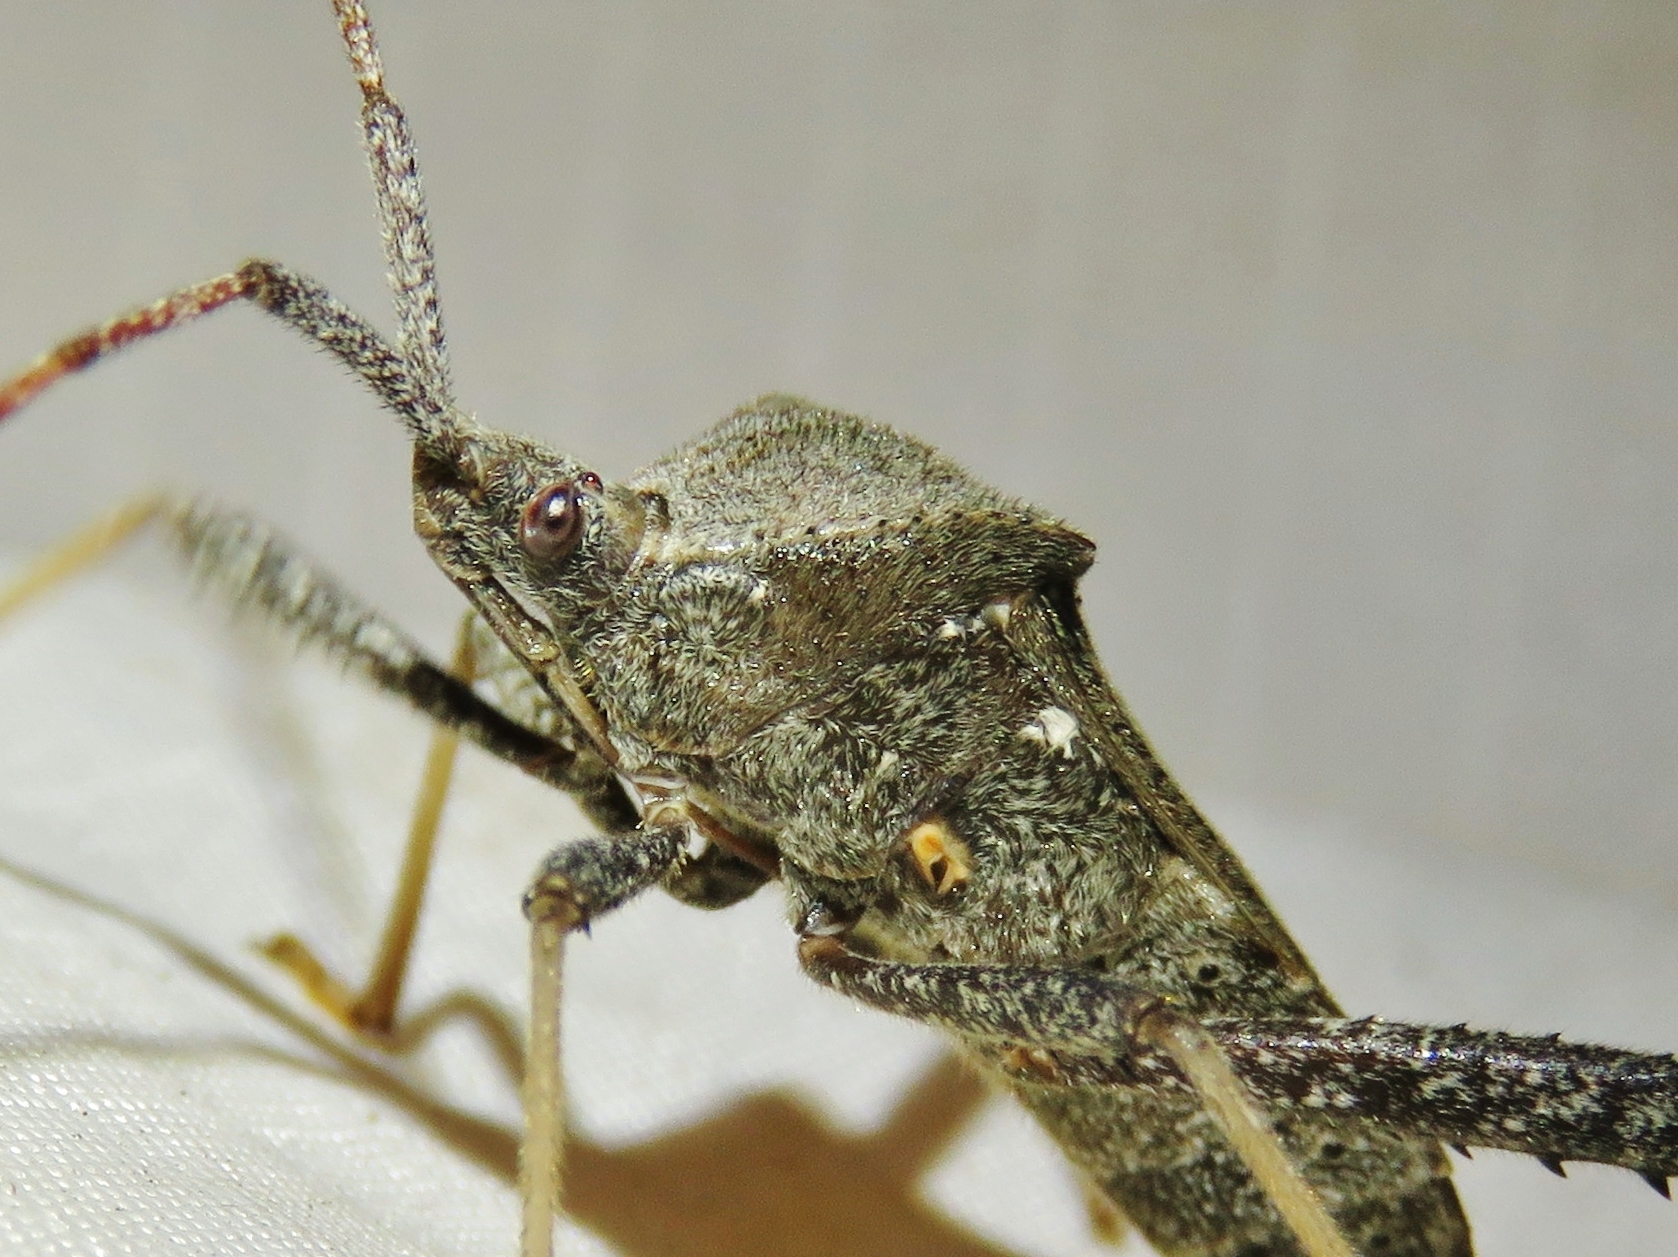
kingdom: Animalia
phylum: Arthropoda
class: Insecta
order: Hemiptera
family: Coreidae
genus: Leptoglossus
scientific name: Leptoglossus oppositus
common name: Northern leaf-footed bug
